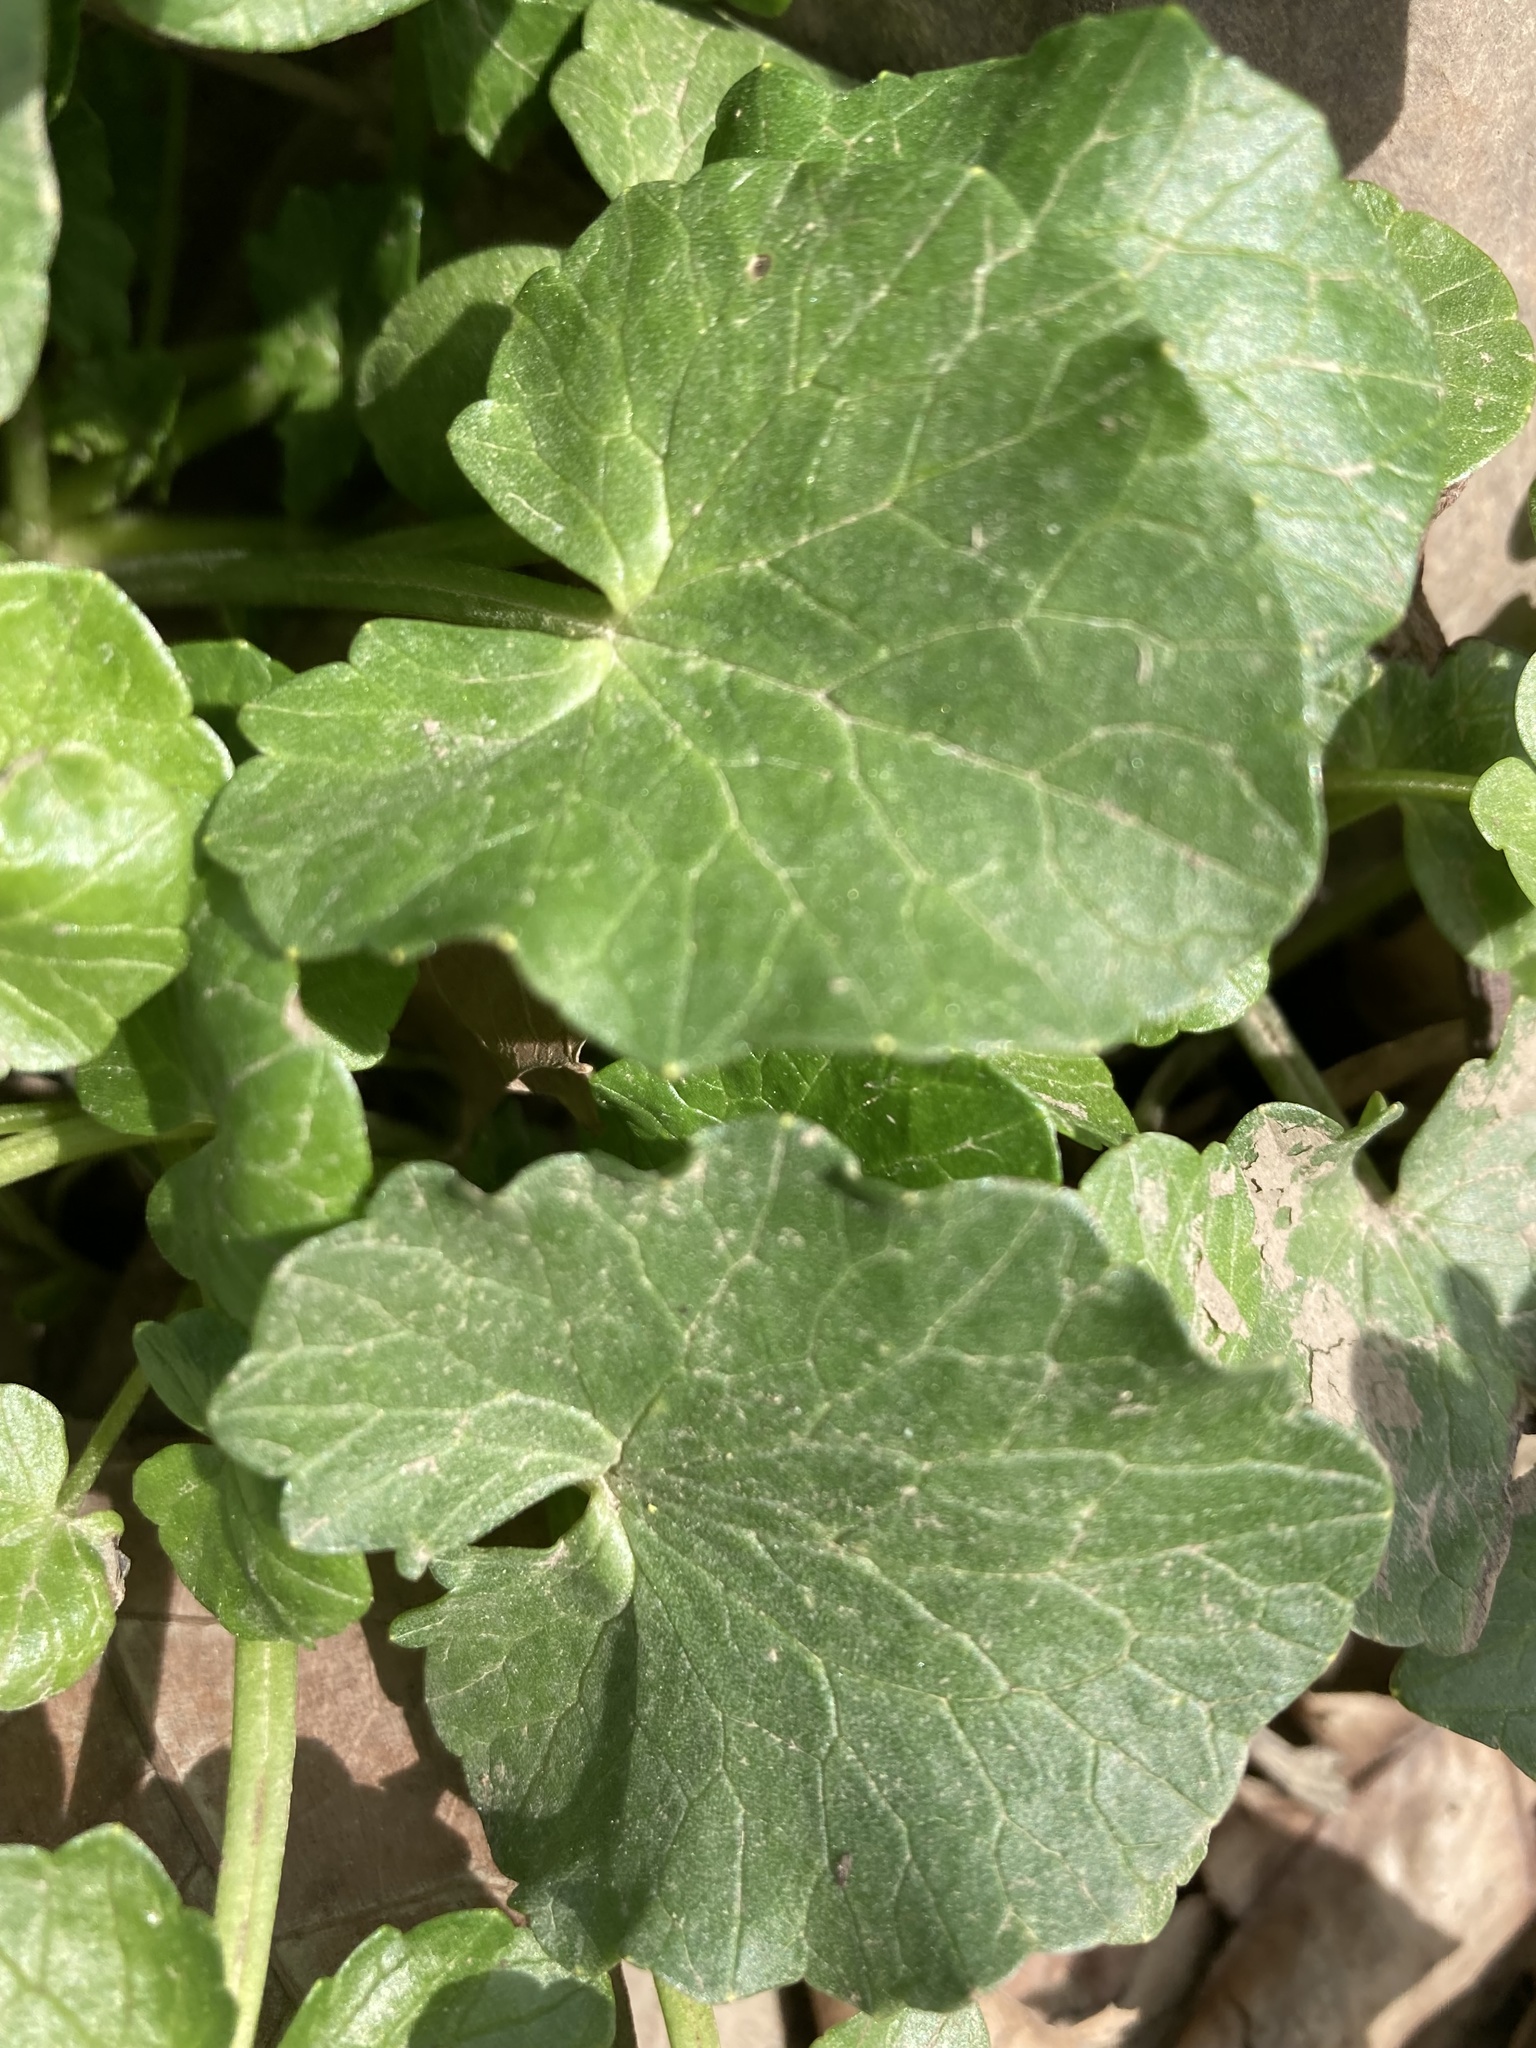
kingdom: Plantae
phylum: Tracheophyta
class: Magnoliopsida
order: Ranunculales
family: Ranunculaceae
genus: Ficaria
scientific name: Ficaria verna
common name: Lesser celandine
